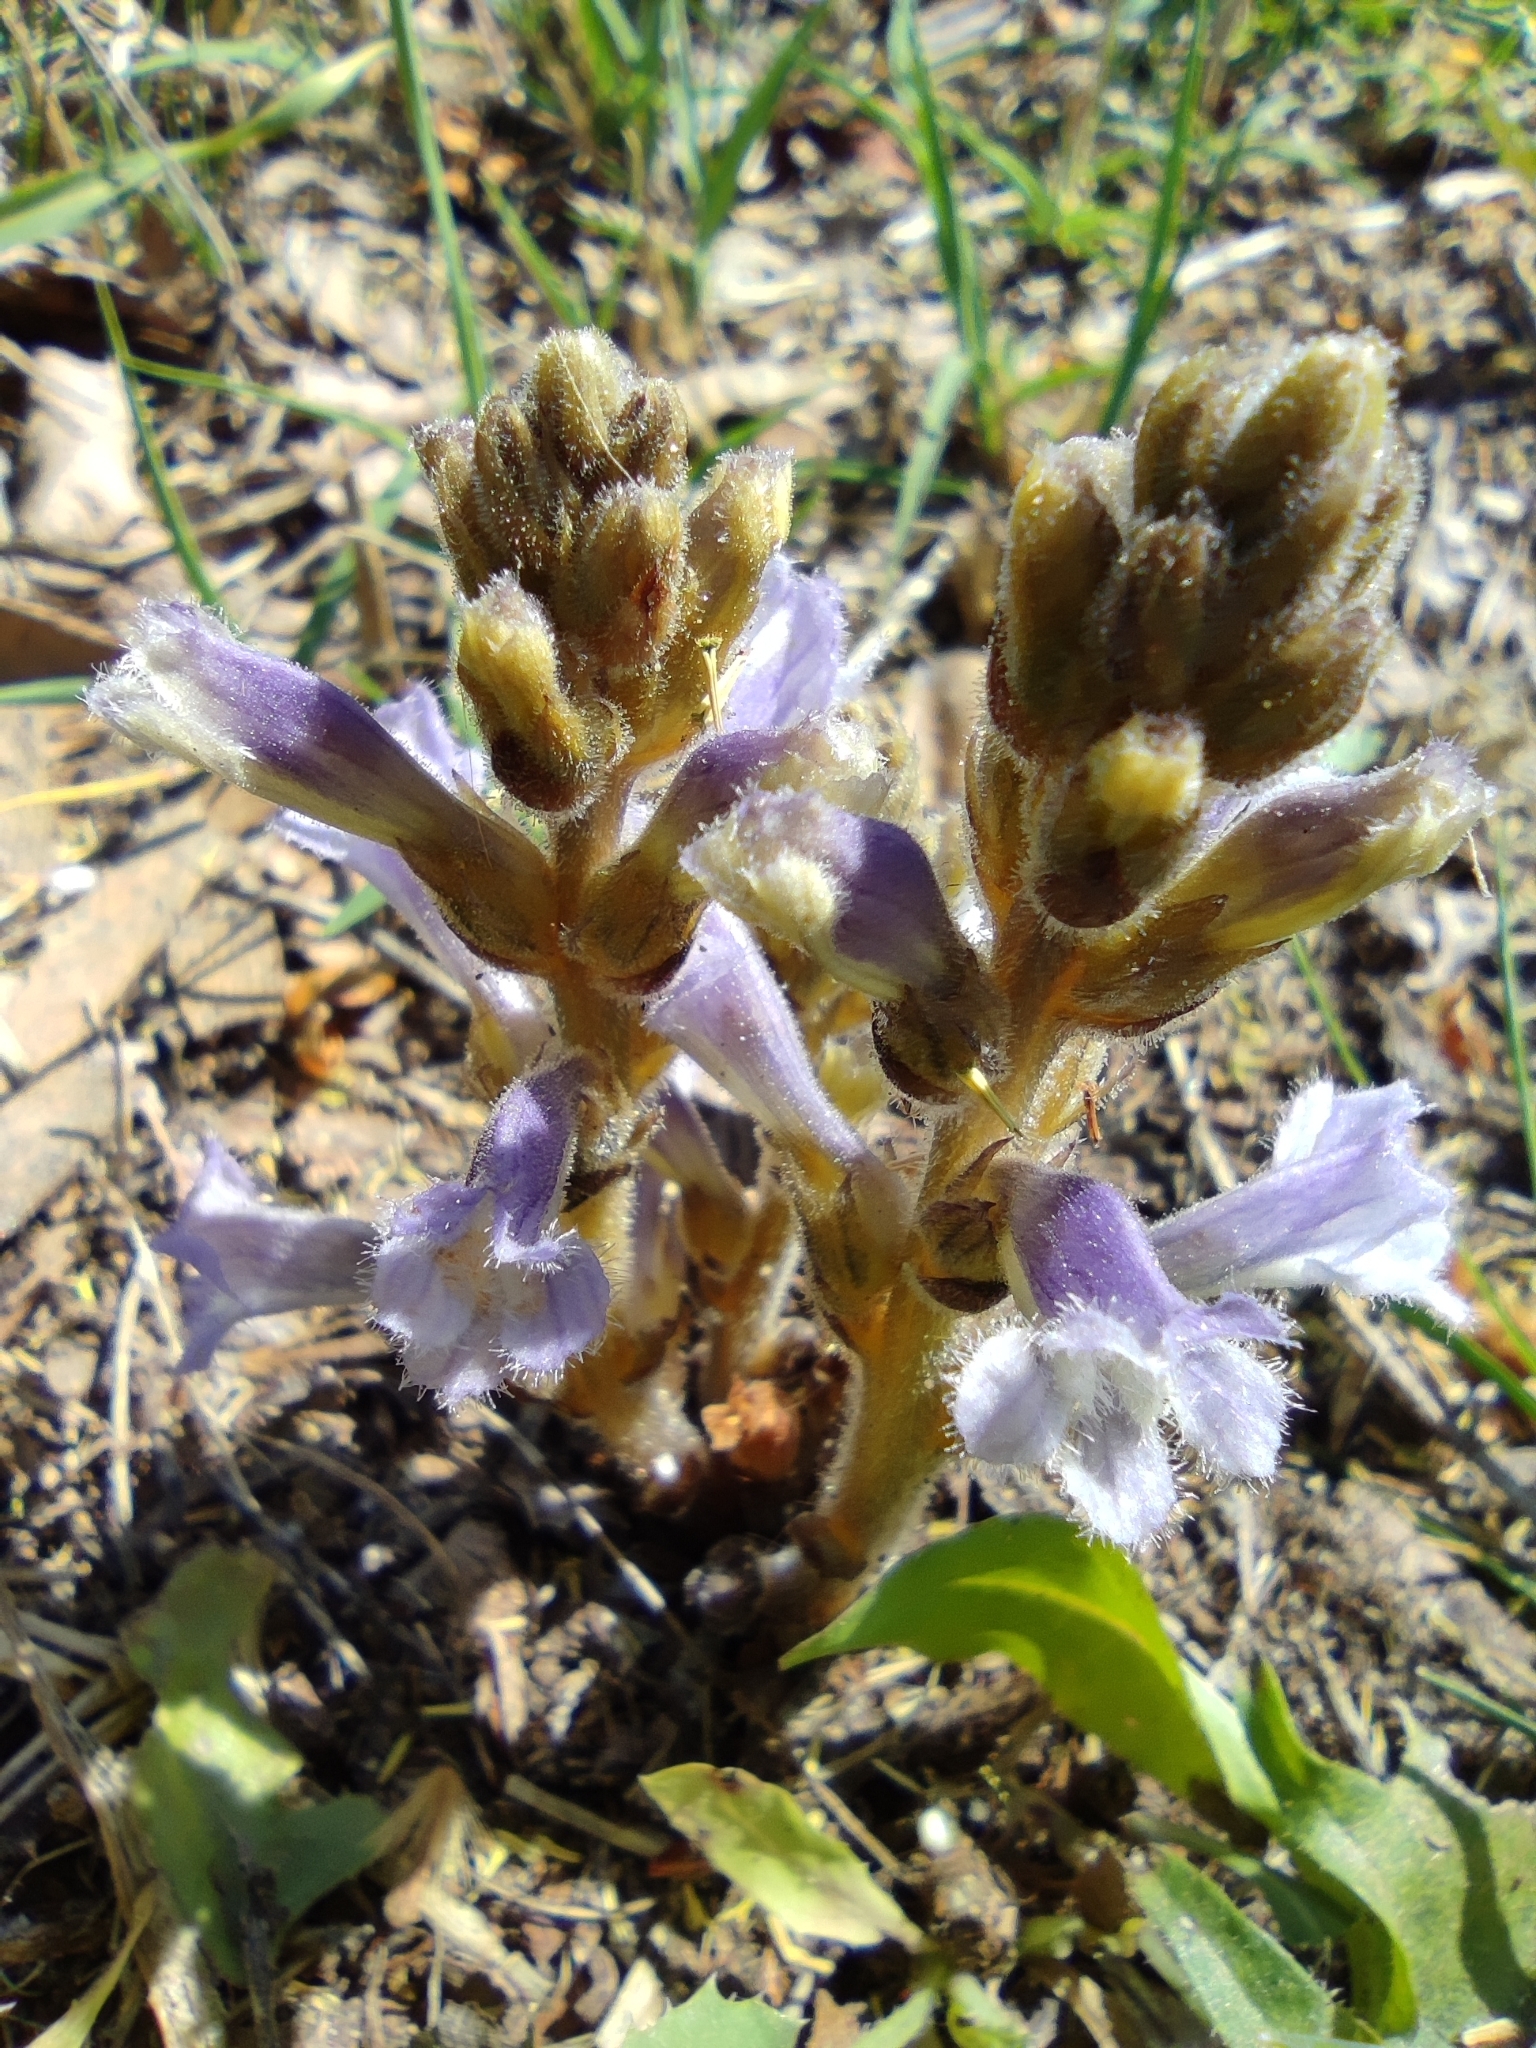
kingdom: Plantae
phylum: Tracheophyta
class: Magnoliopsida
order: Lamiales
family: Orobanchaceae
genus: Phelipanche
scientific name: Phelipanche mutelii
